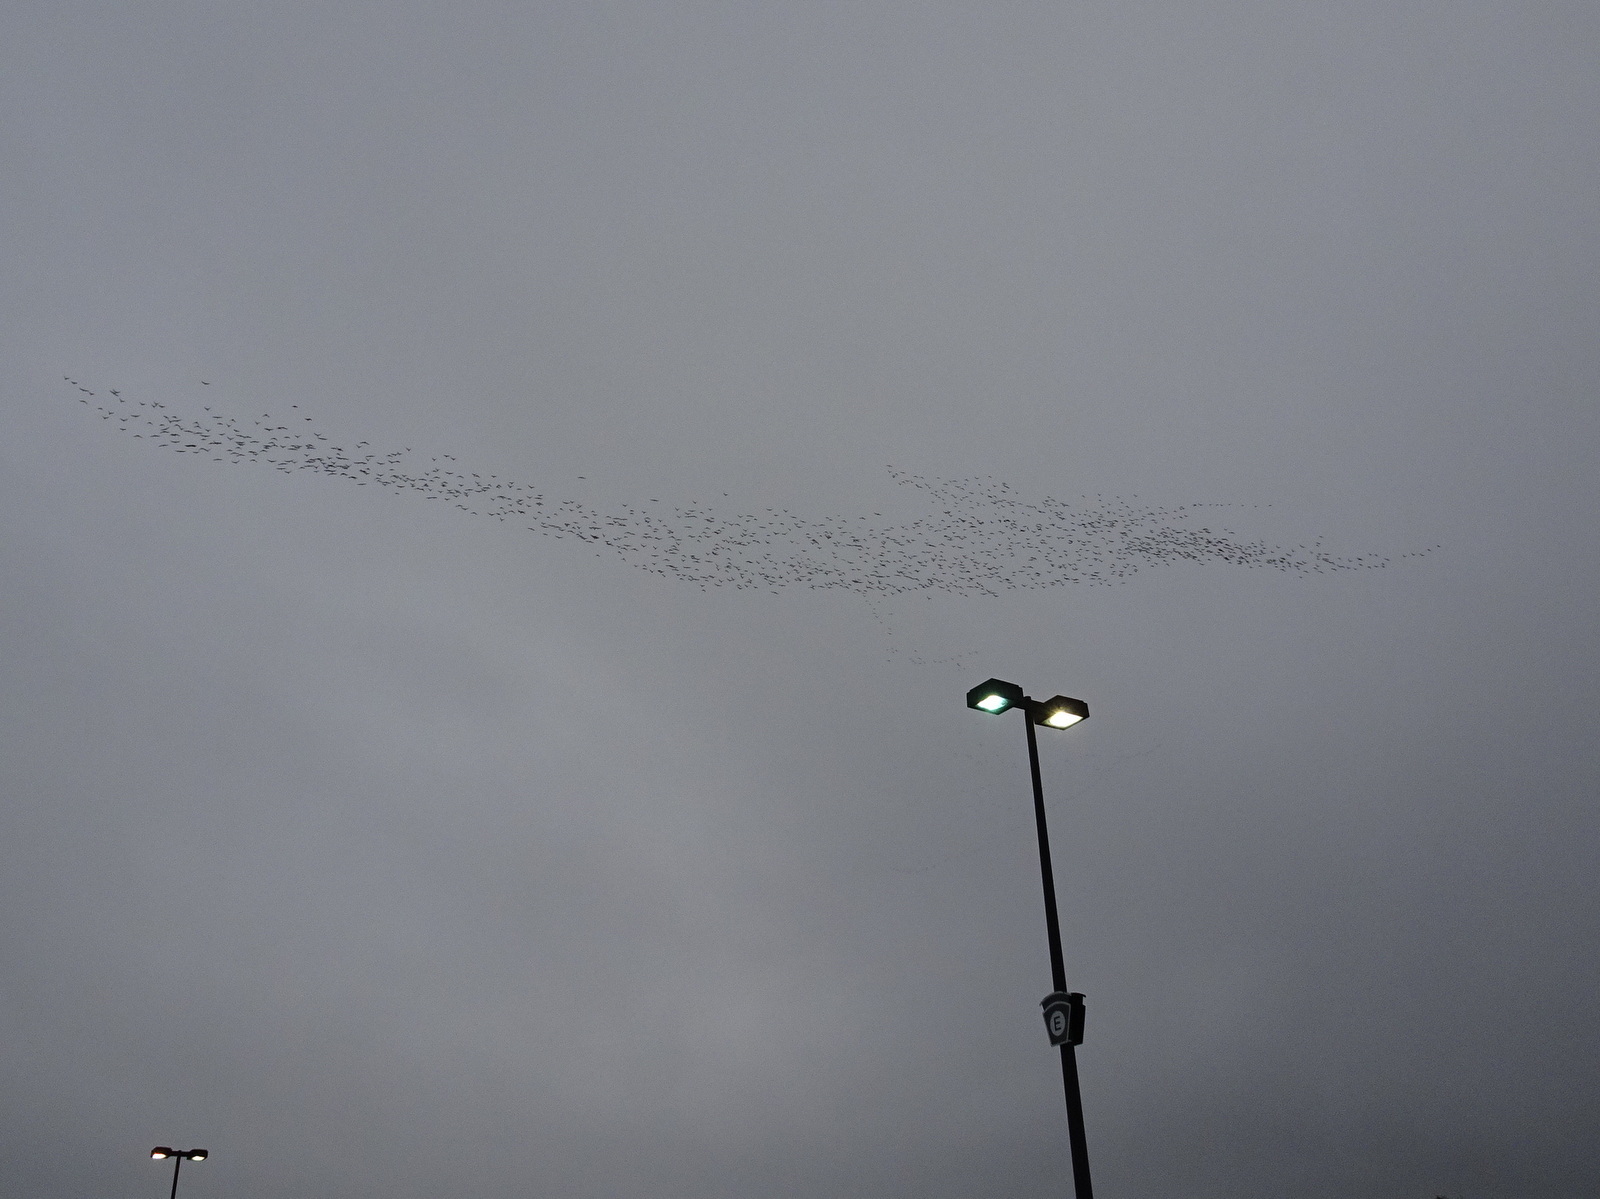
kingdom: Animalia
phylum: Chordata
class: Aves
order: Charadriiformes
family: Laridae
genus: Leucophaeus
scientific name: Leucophaeus pipixcan
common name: Franklin's gull
